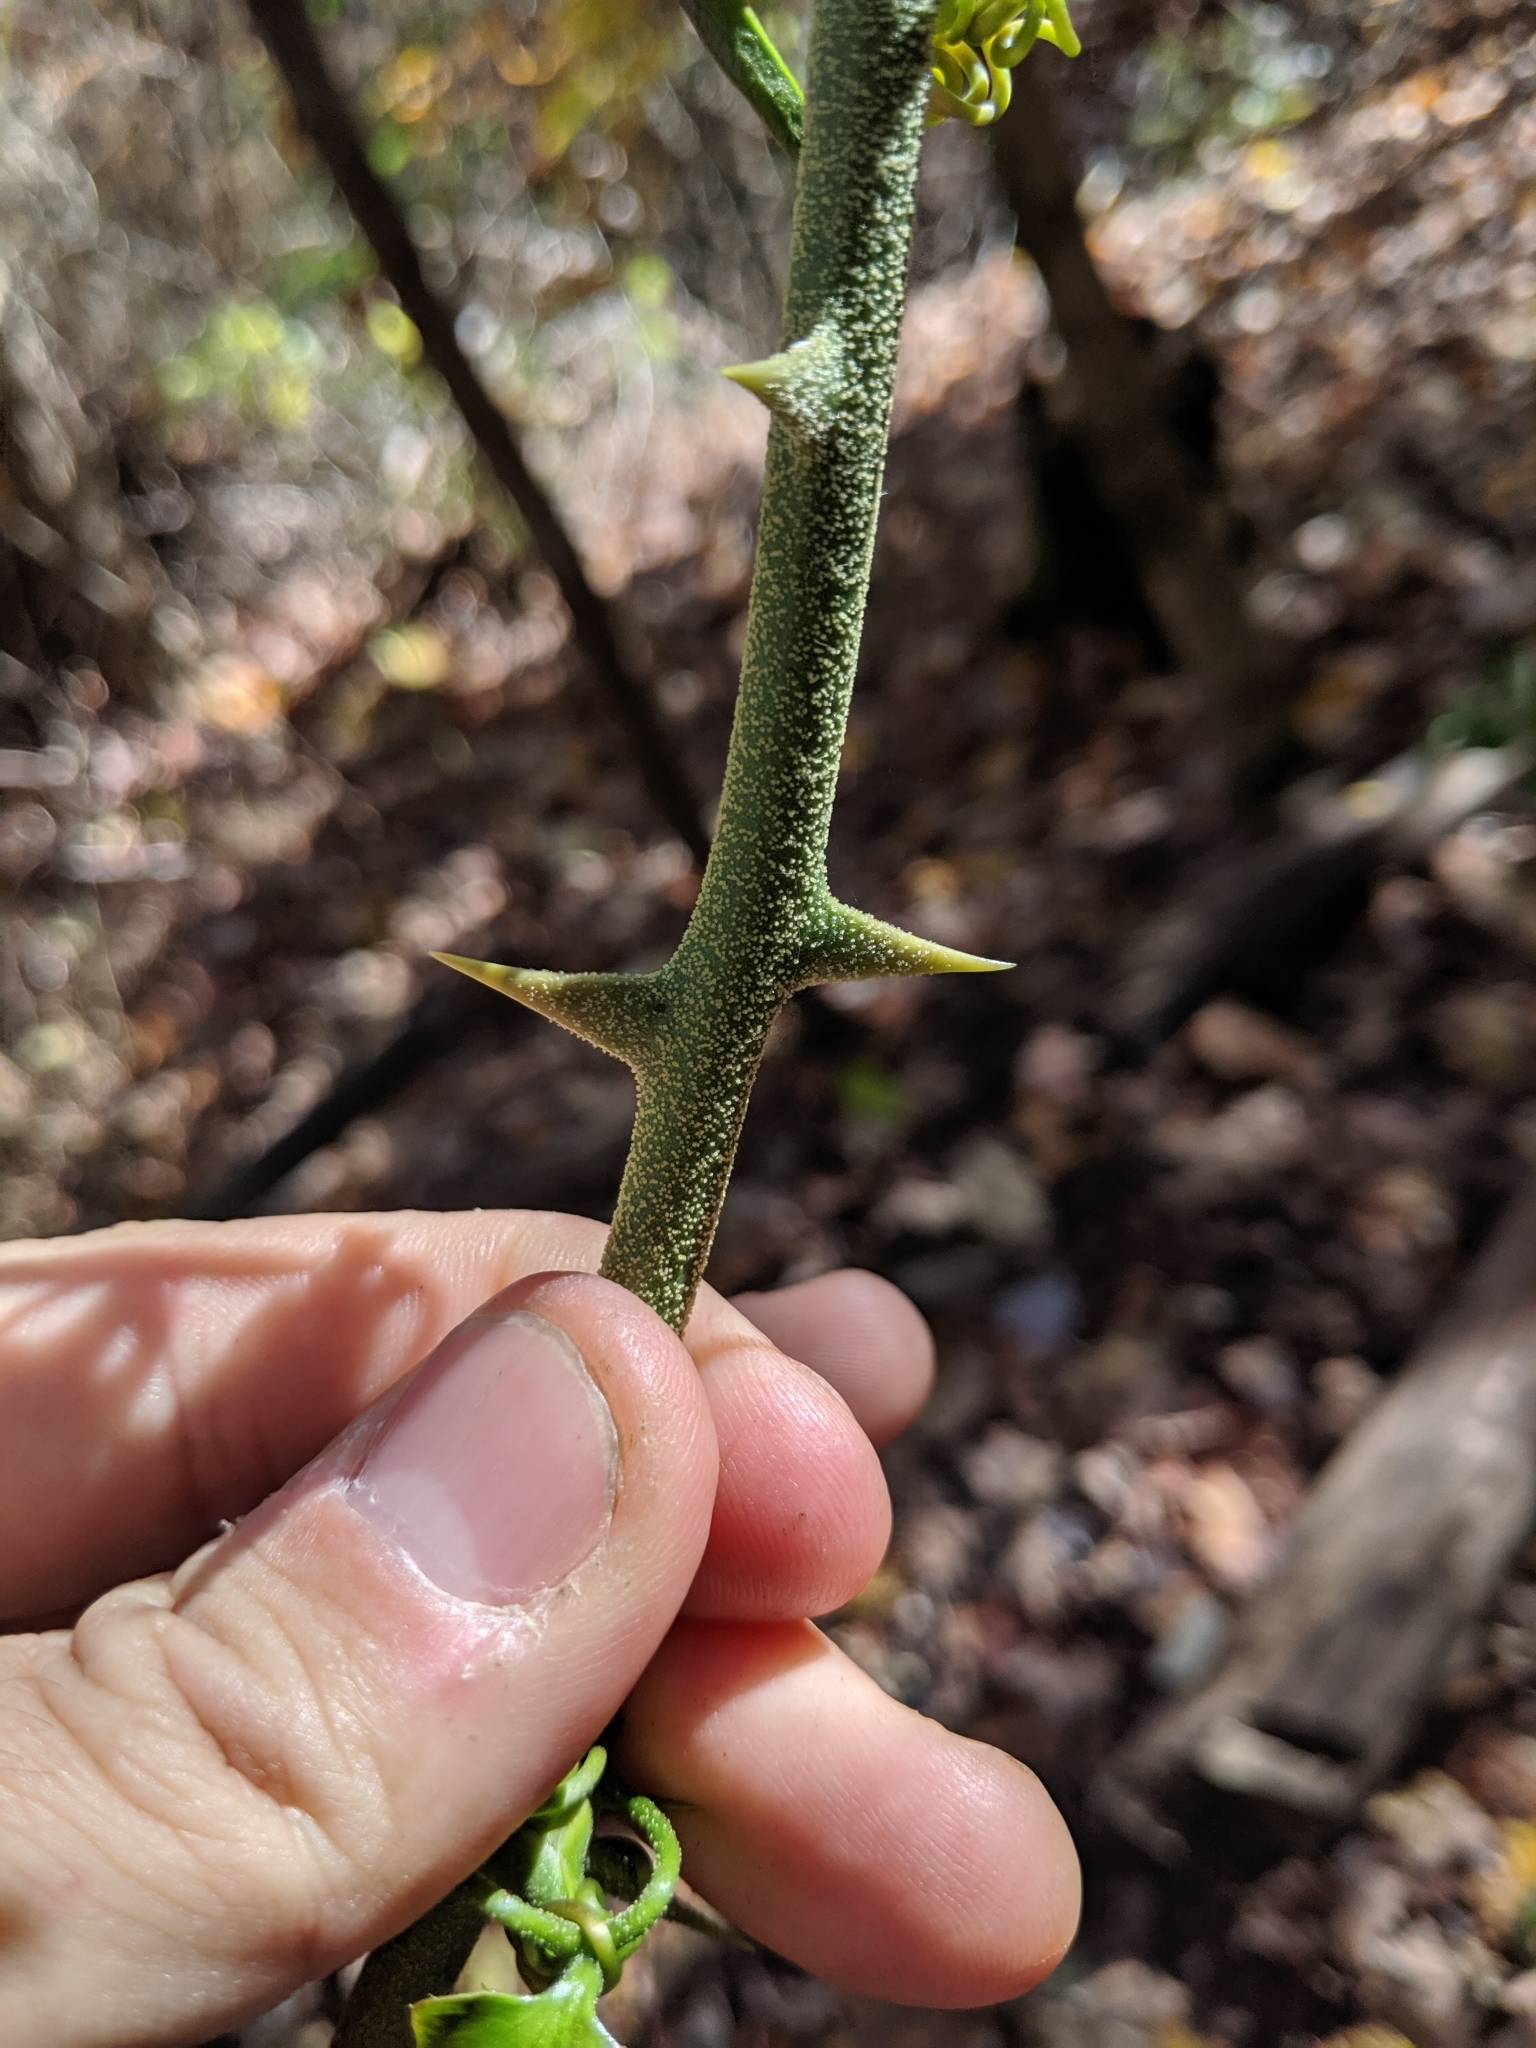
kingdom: Plantae
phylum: Tracheophyta
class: Liliopsida
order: Liliales
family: Smilacaceae
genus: Smilax
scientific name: Smilax bona-nox
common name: Catbrier
